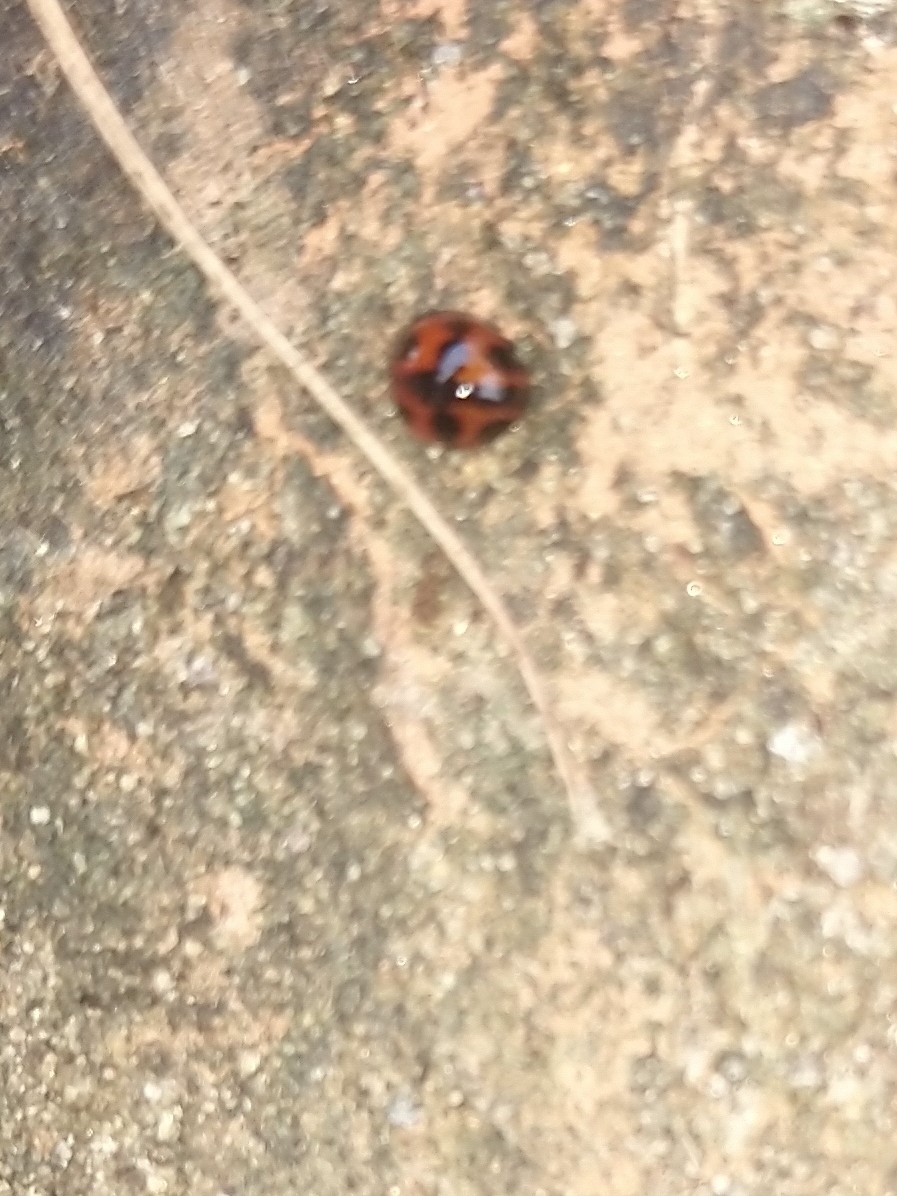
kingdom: Animalia
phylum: Arthropoda
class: Insecta
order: Coleoptera
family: Coccinellidae
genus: Coccinella
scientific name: Coccinella transversalis
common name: Transverse lady beetle
